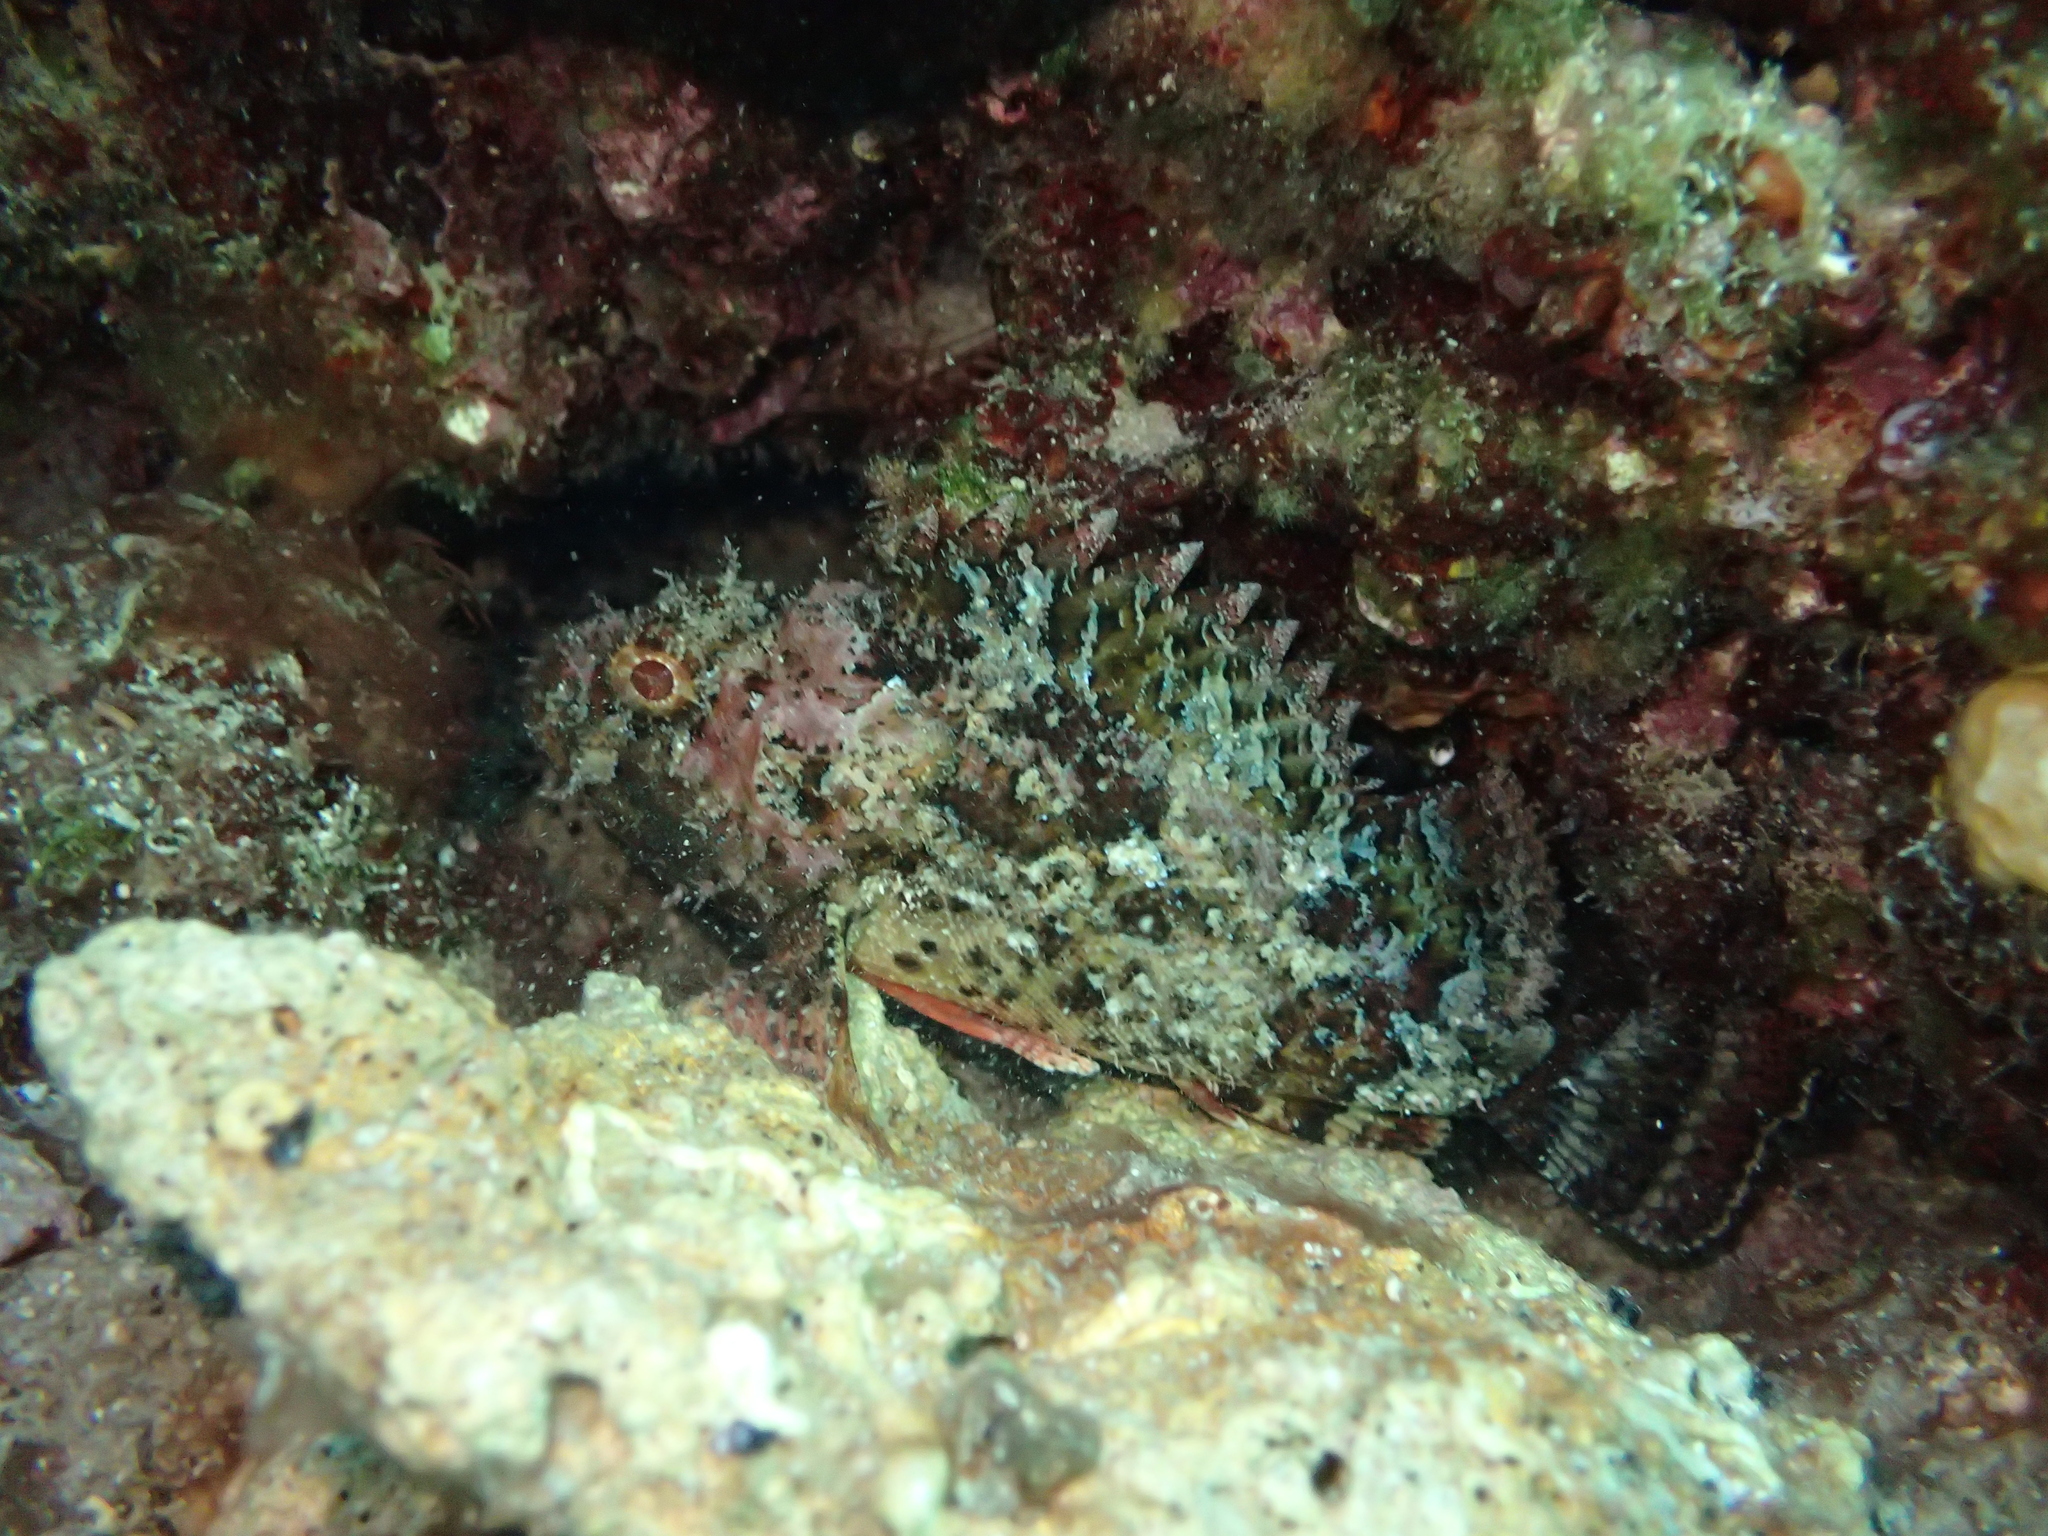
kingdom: Animalia
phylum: Chordata
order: Scorpaeniformes
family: Scorpaenidae
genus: Scorpaena
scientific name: Scorpaena porcus
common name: Black scorpionfish
